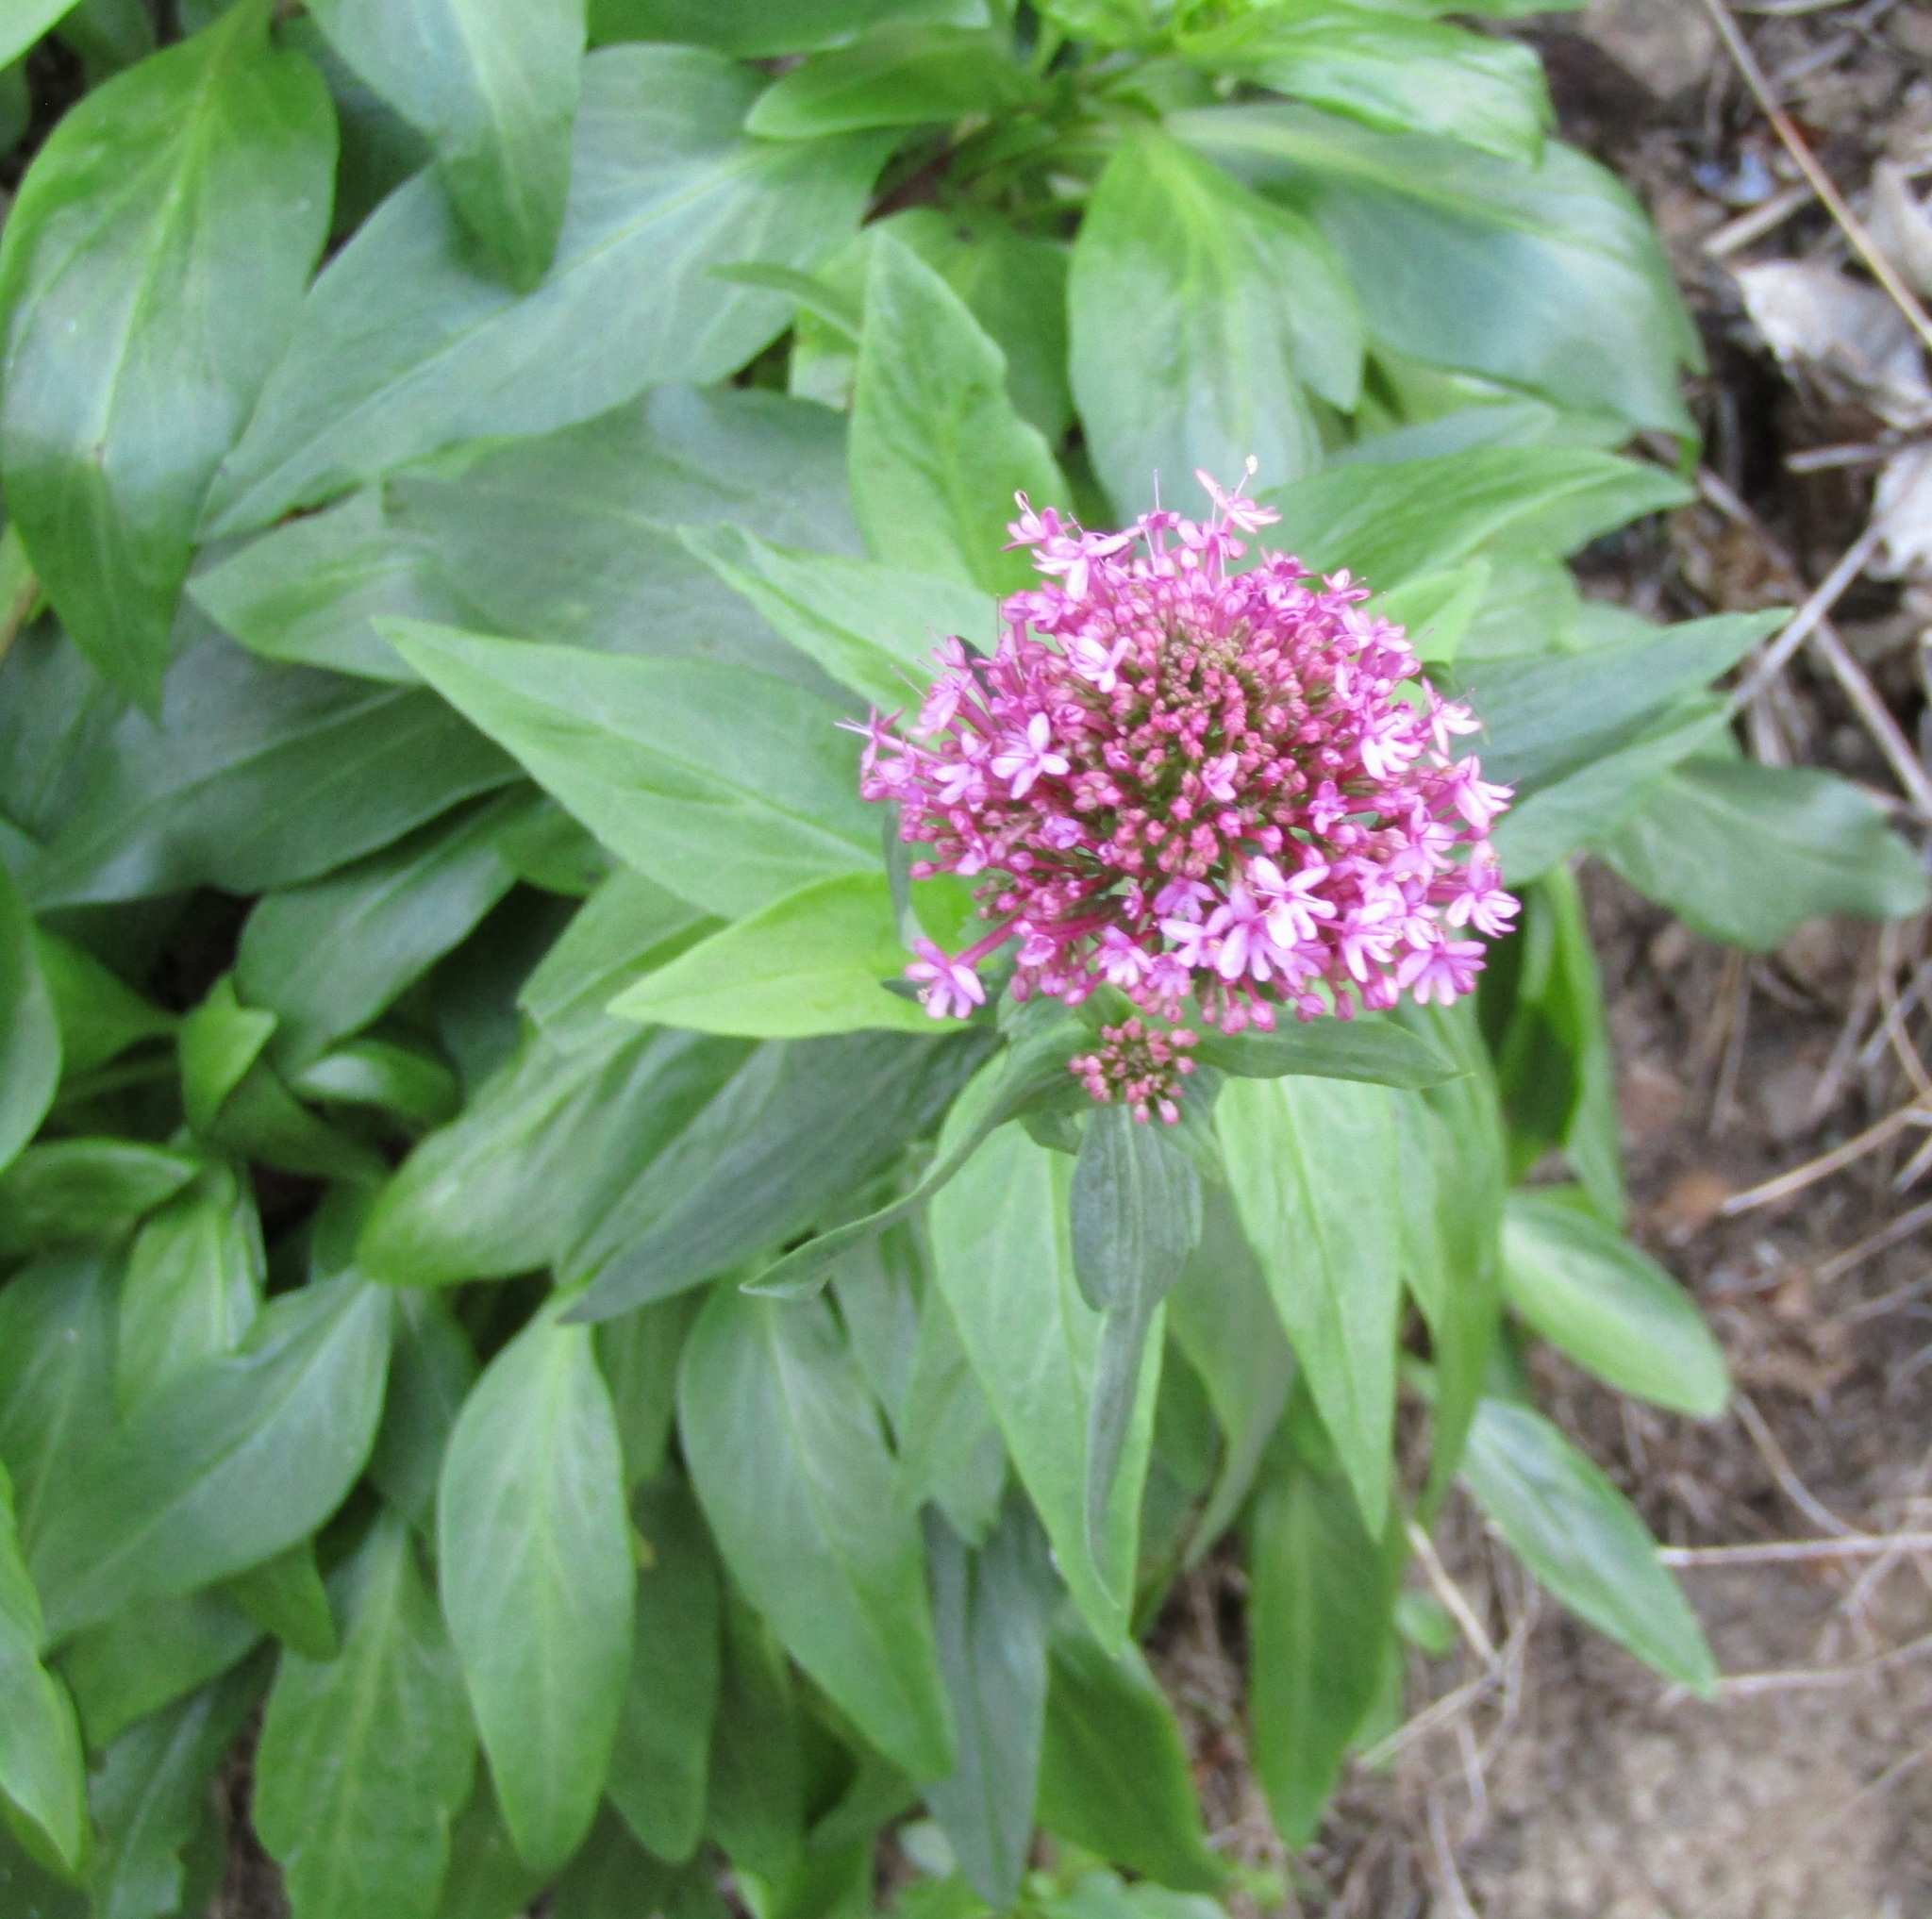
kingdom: Plantae
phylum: Tracheophyta
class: Magnoliopsida
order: Dipsacales
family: Caprifoliaceae
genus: Centranthus
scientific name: Centranthus ruber
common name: Red valerian
